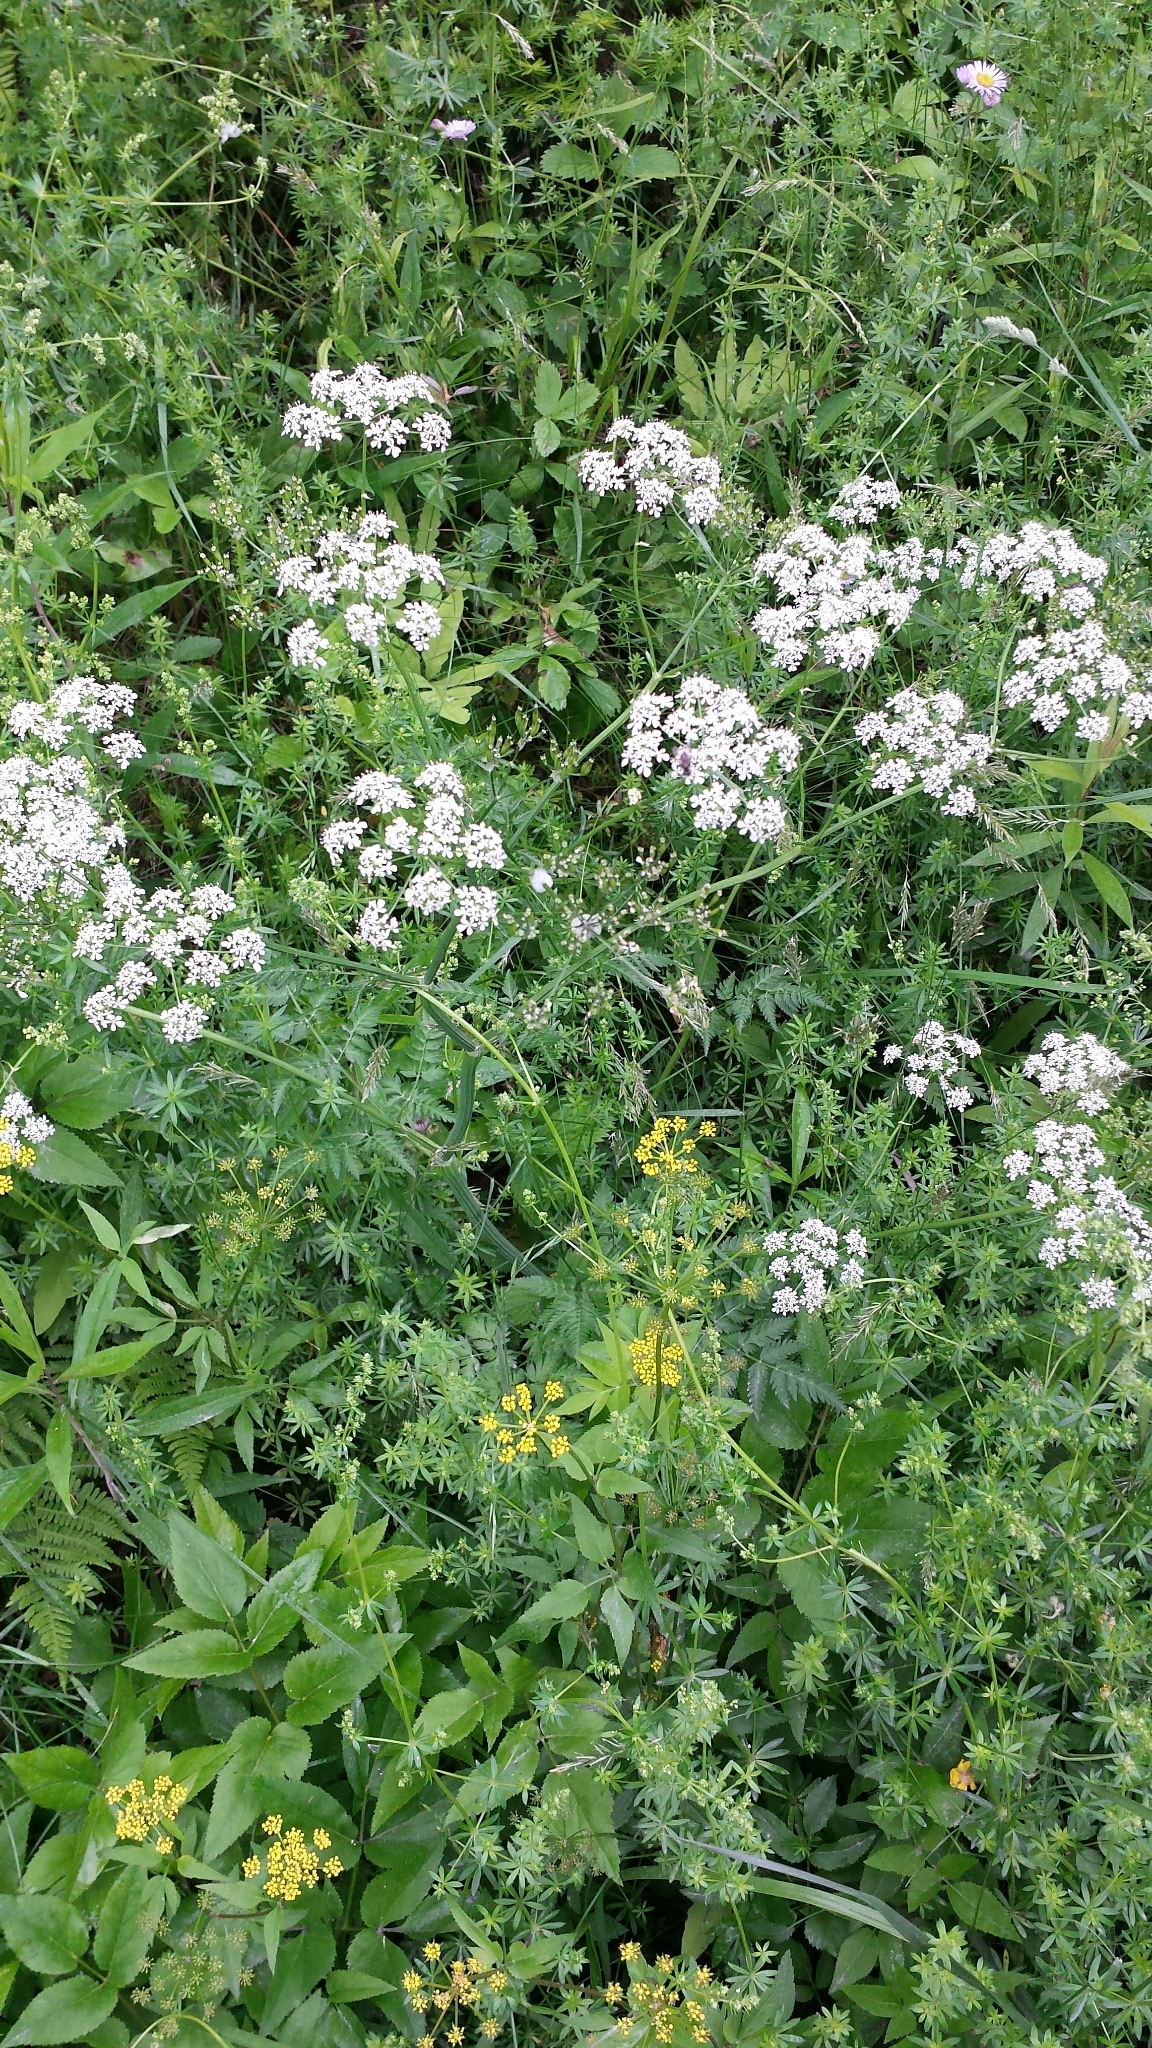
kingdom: Plantae
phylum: Tracheophyta
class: Magnoliopsida
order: Apiales
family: Apiaceae
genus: Anthriscus
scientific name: Anthriscus sylvestris
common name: Cow parsley
